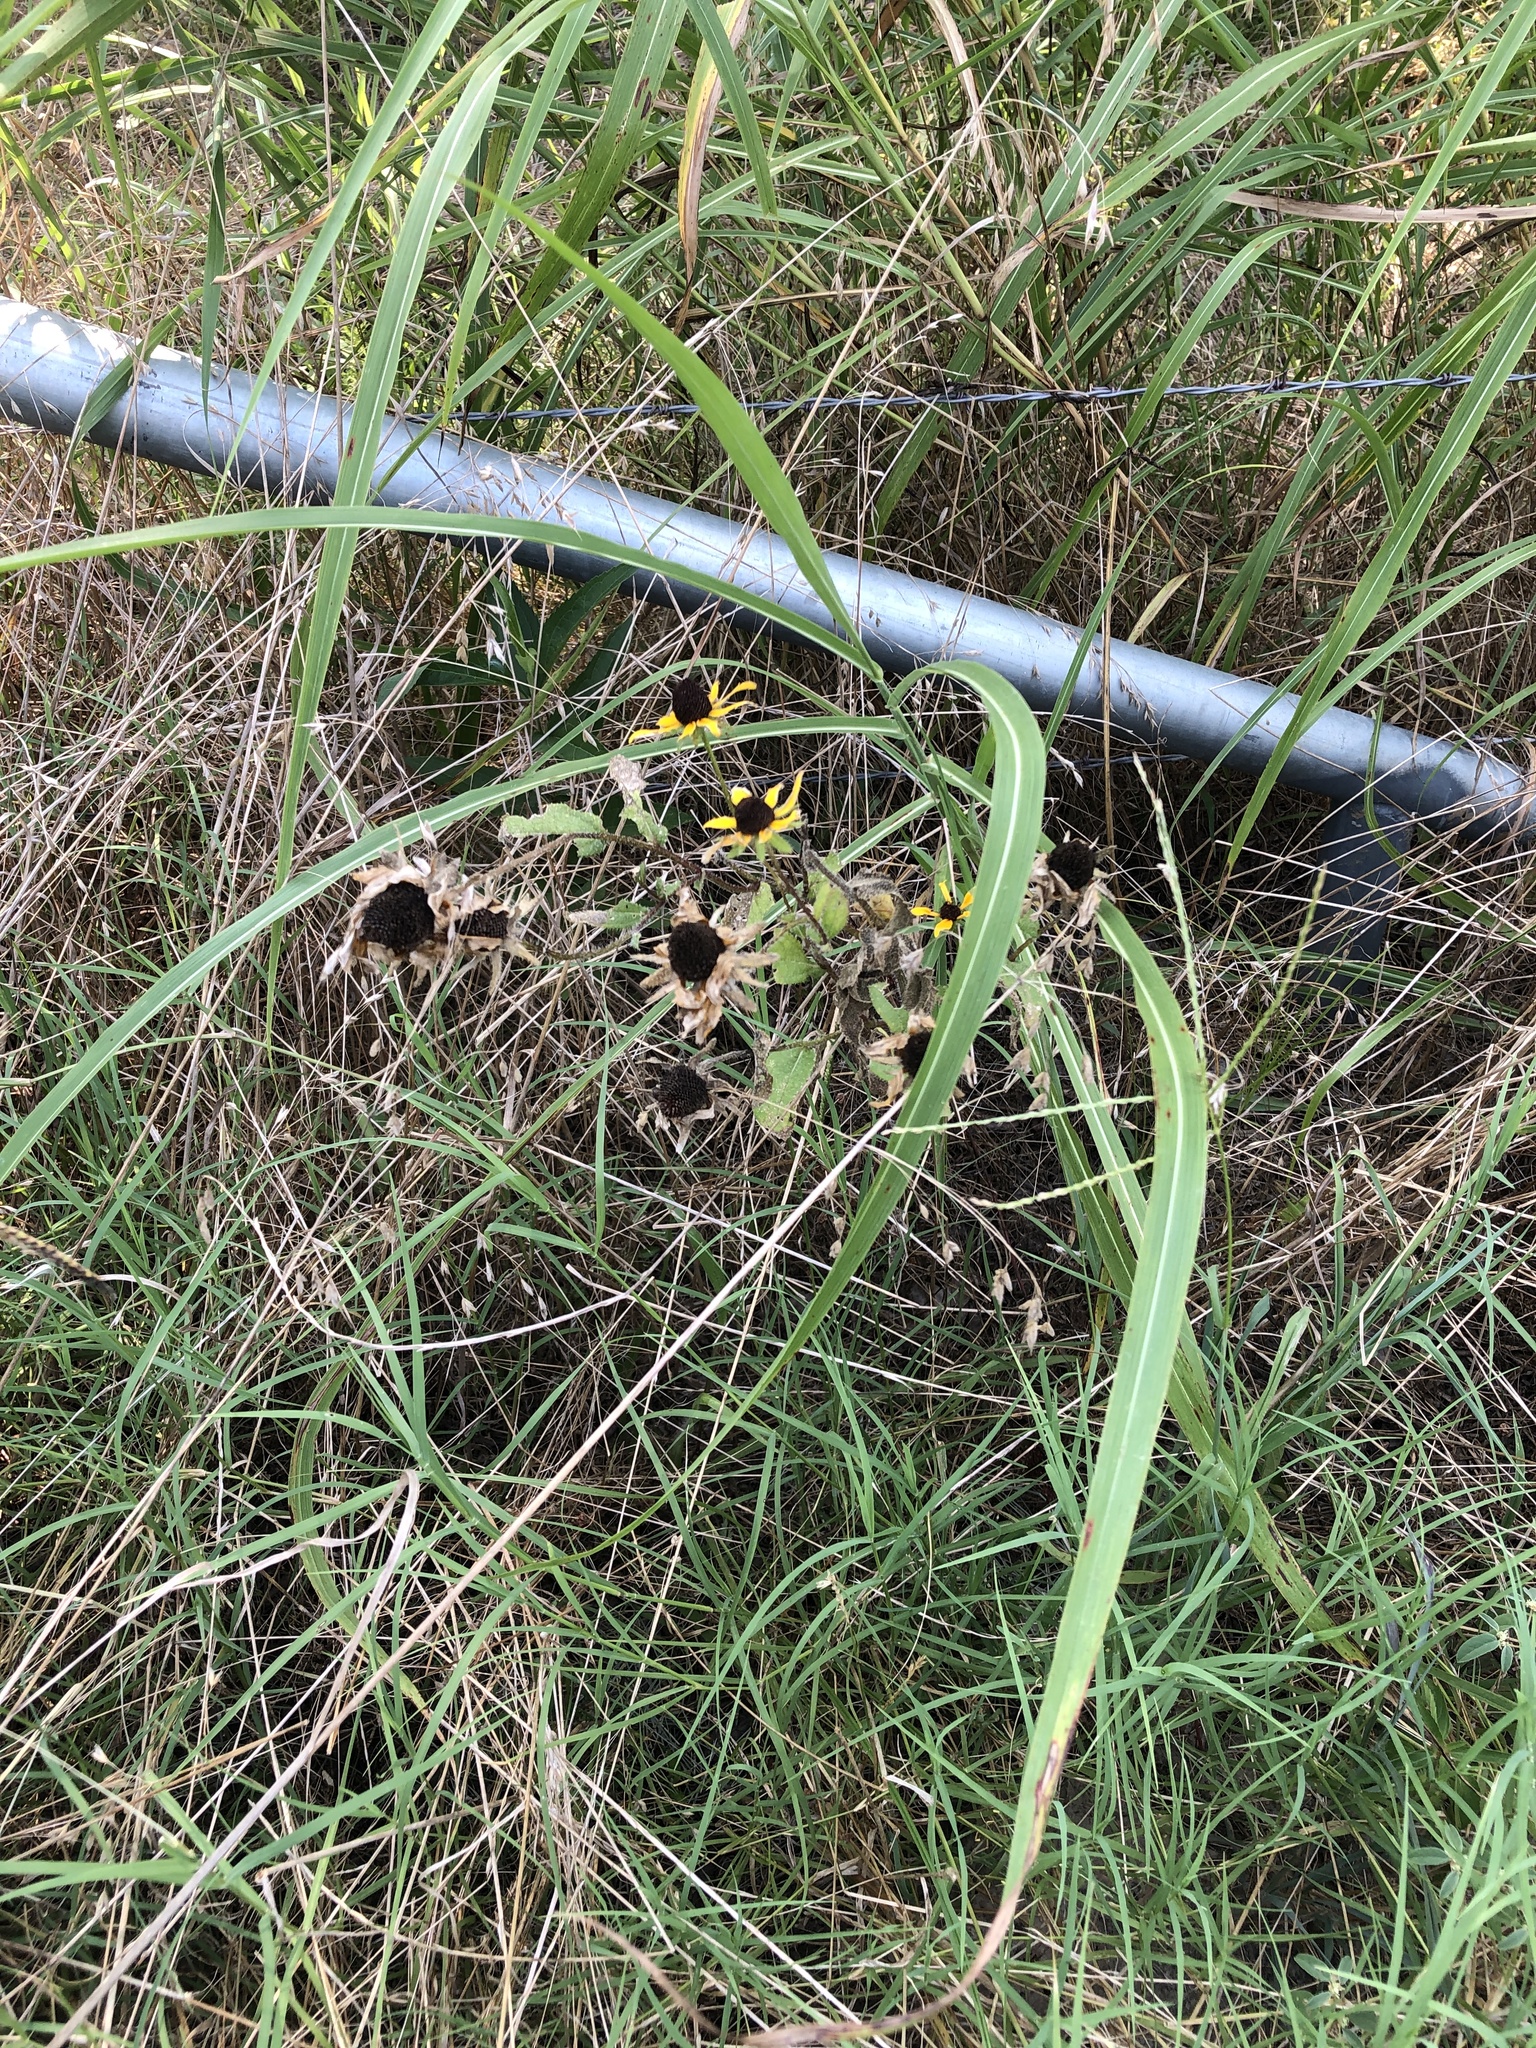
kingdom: Plantae
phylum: Tracheophyta
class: Magnoliopsida
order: Asterales
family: Asteraceae
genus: Rudbeckia
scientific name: Rudbeckia hirta
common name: Black-eyed-susan
